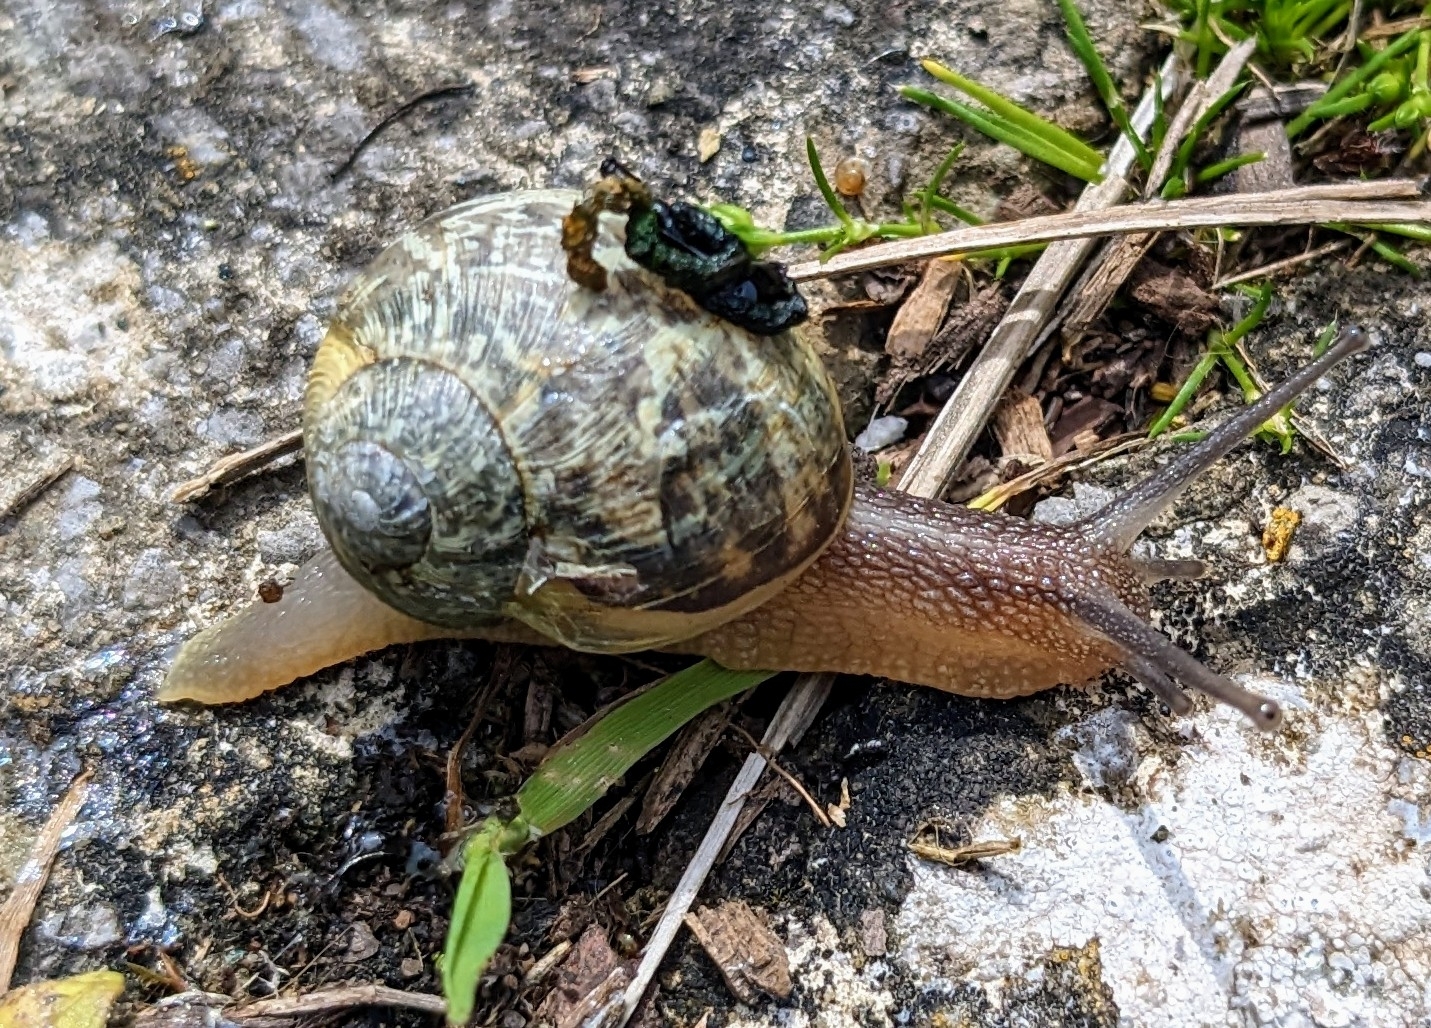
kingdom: Animalia
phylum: Mollusca
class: Gastropoda
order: Stylommatophora
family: Helicidae
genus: Cornu
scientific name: Cornu aspersum
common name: Brown garden snail
